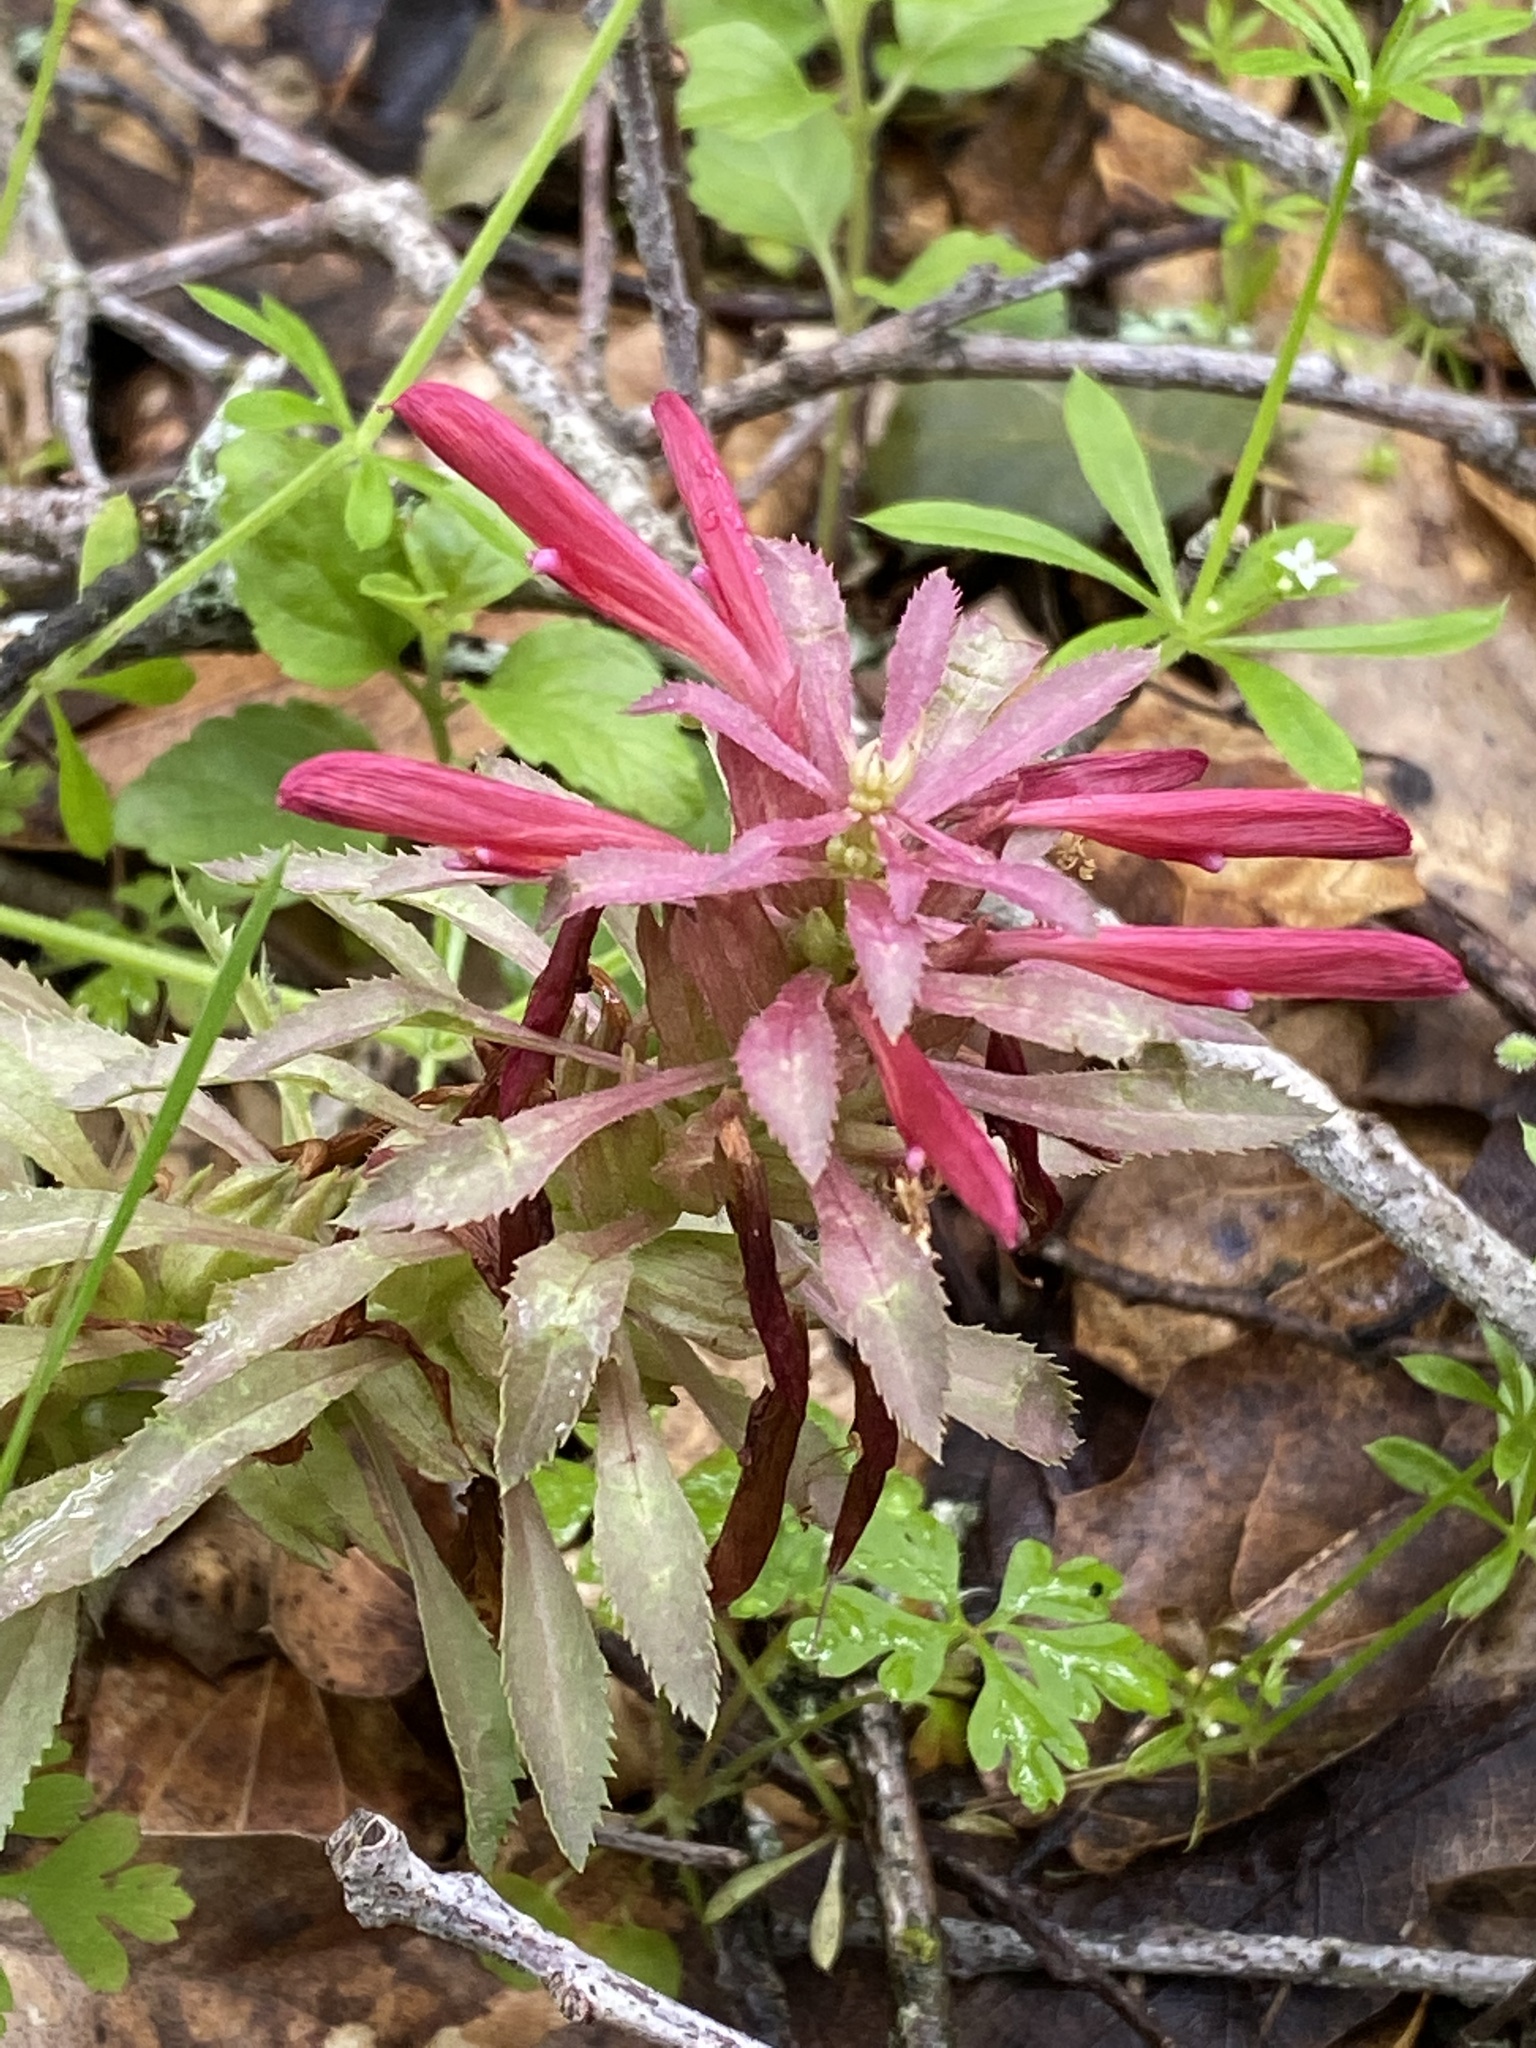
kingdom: Plantae
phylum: Tracheophyta
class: Magnoliopsida
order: Lamiales
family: Orobanchaceae
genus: Pedicularis
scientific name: Pedicularis densiflora
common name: Indian warrior
